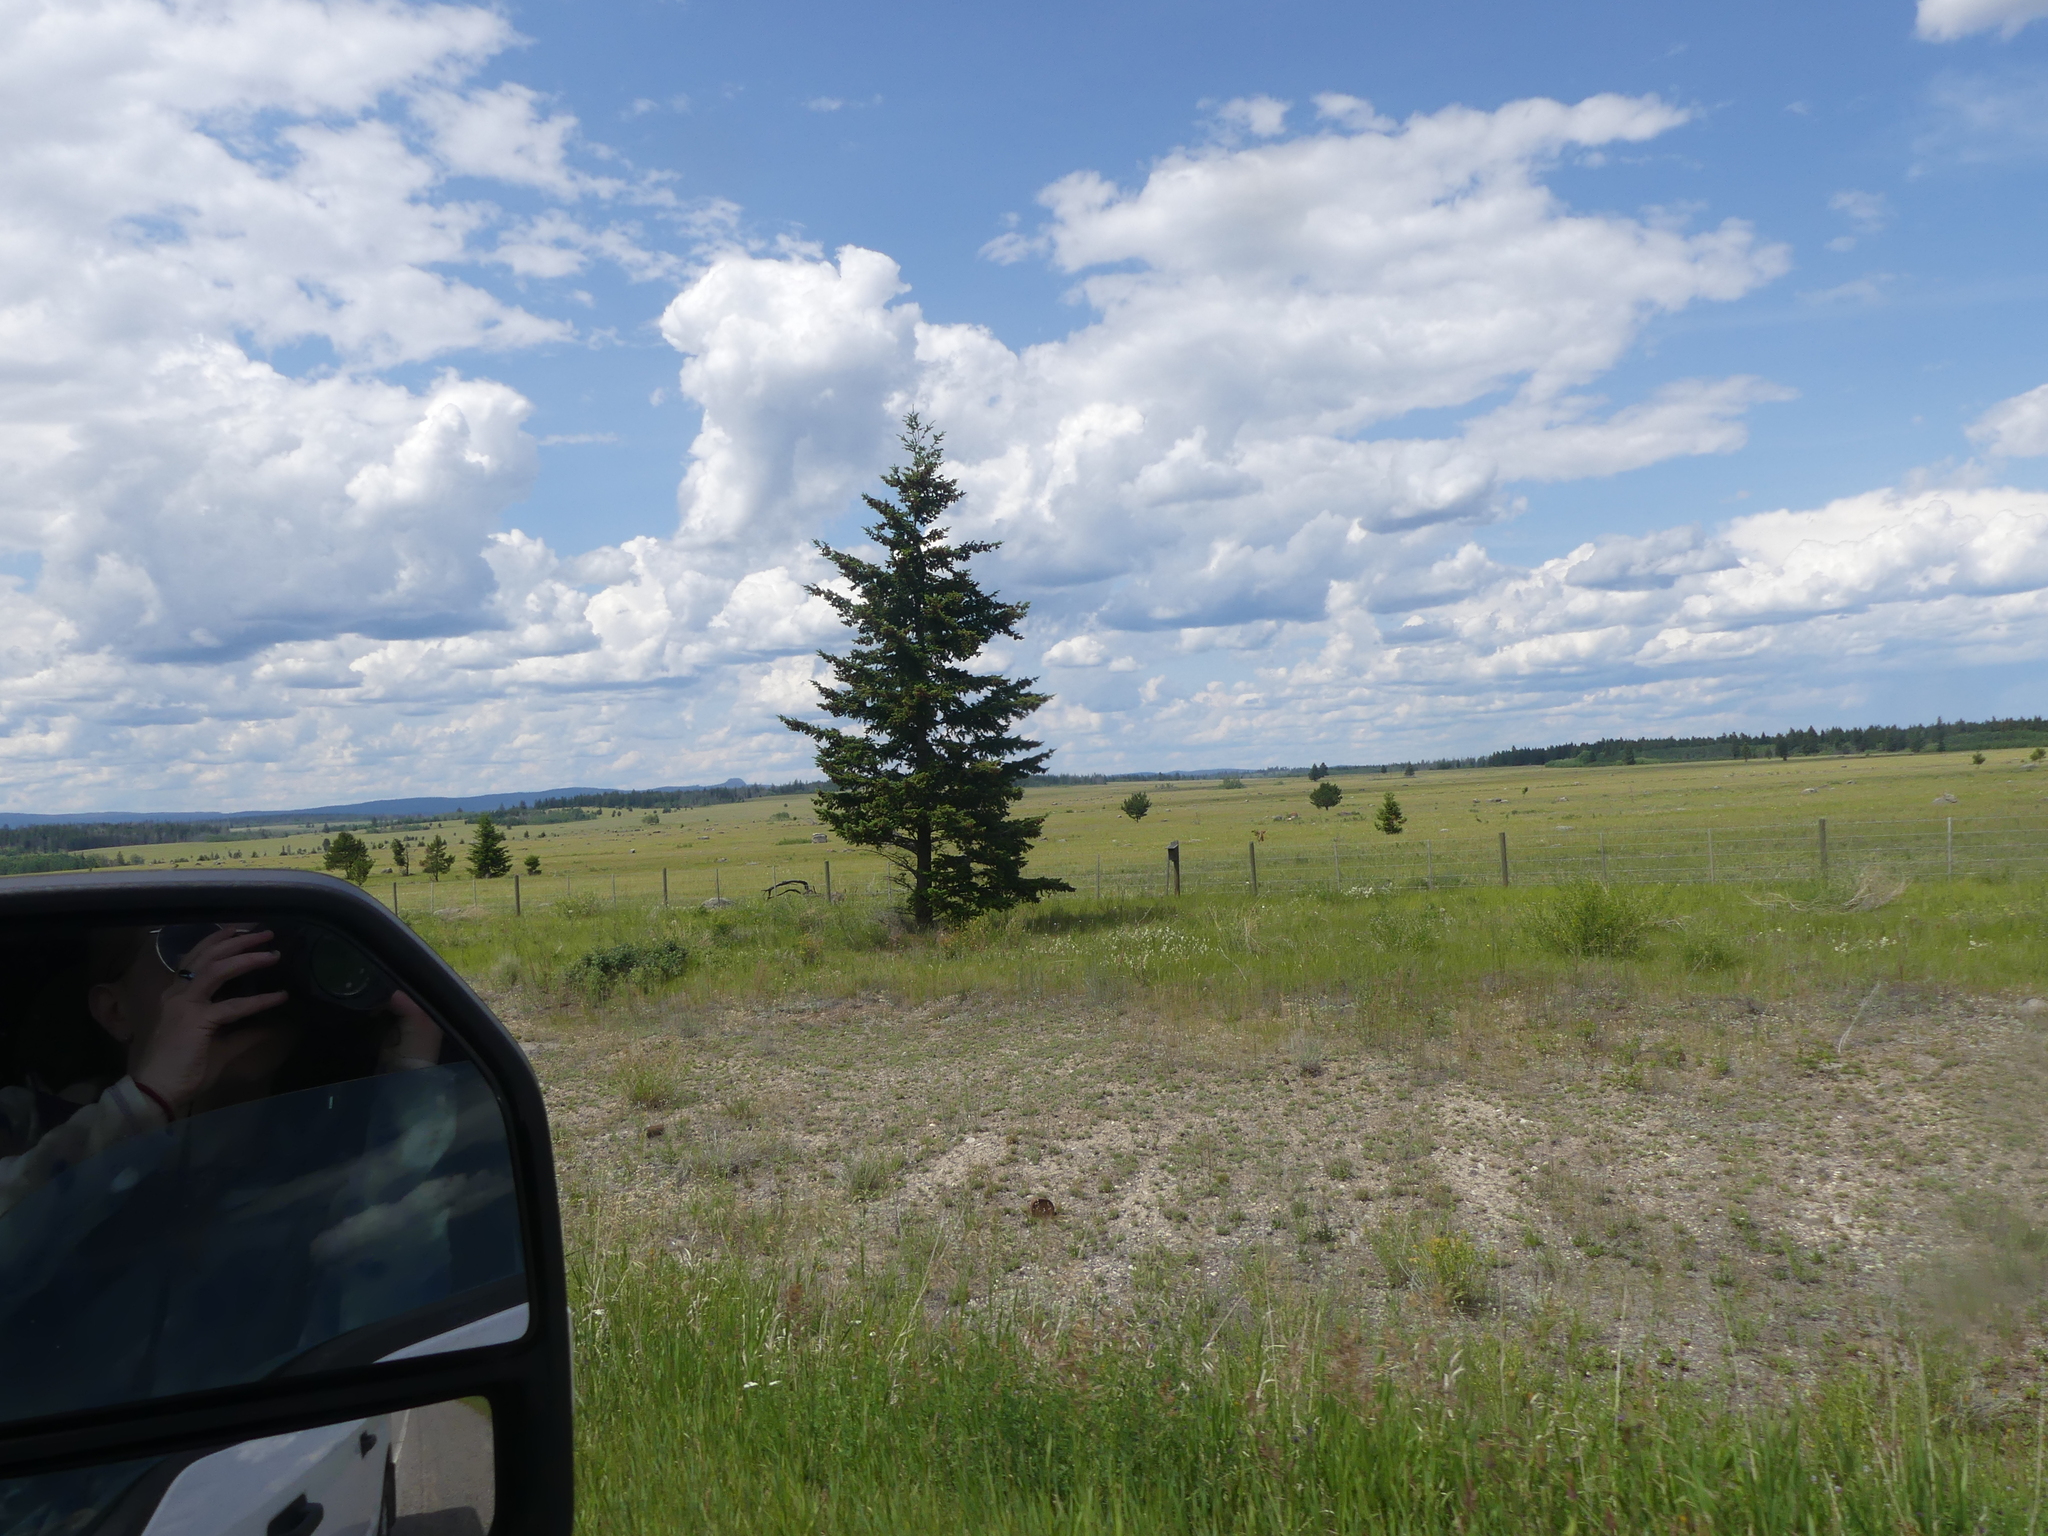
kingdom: Plantae
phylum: Tracheophyta
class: Pinopsida
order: Pinales
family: Pinaceae
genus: Pseudotsuga
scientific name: Pseudotsuga menziesii
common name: Douglas fir
